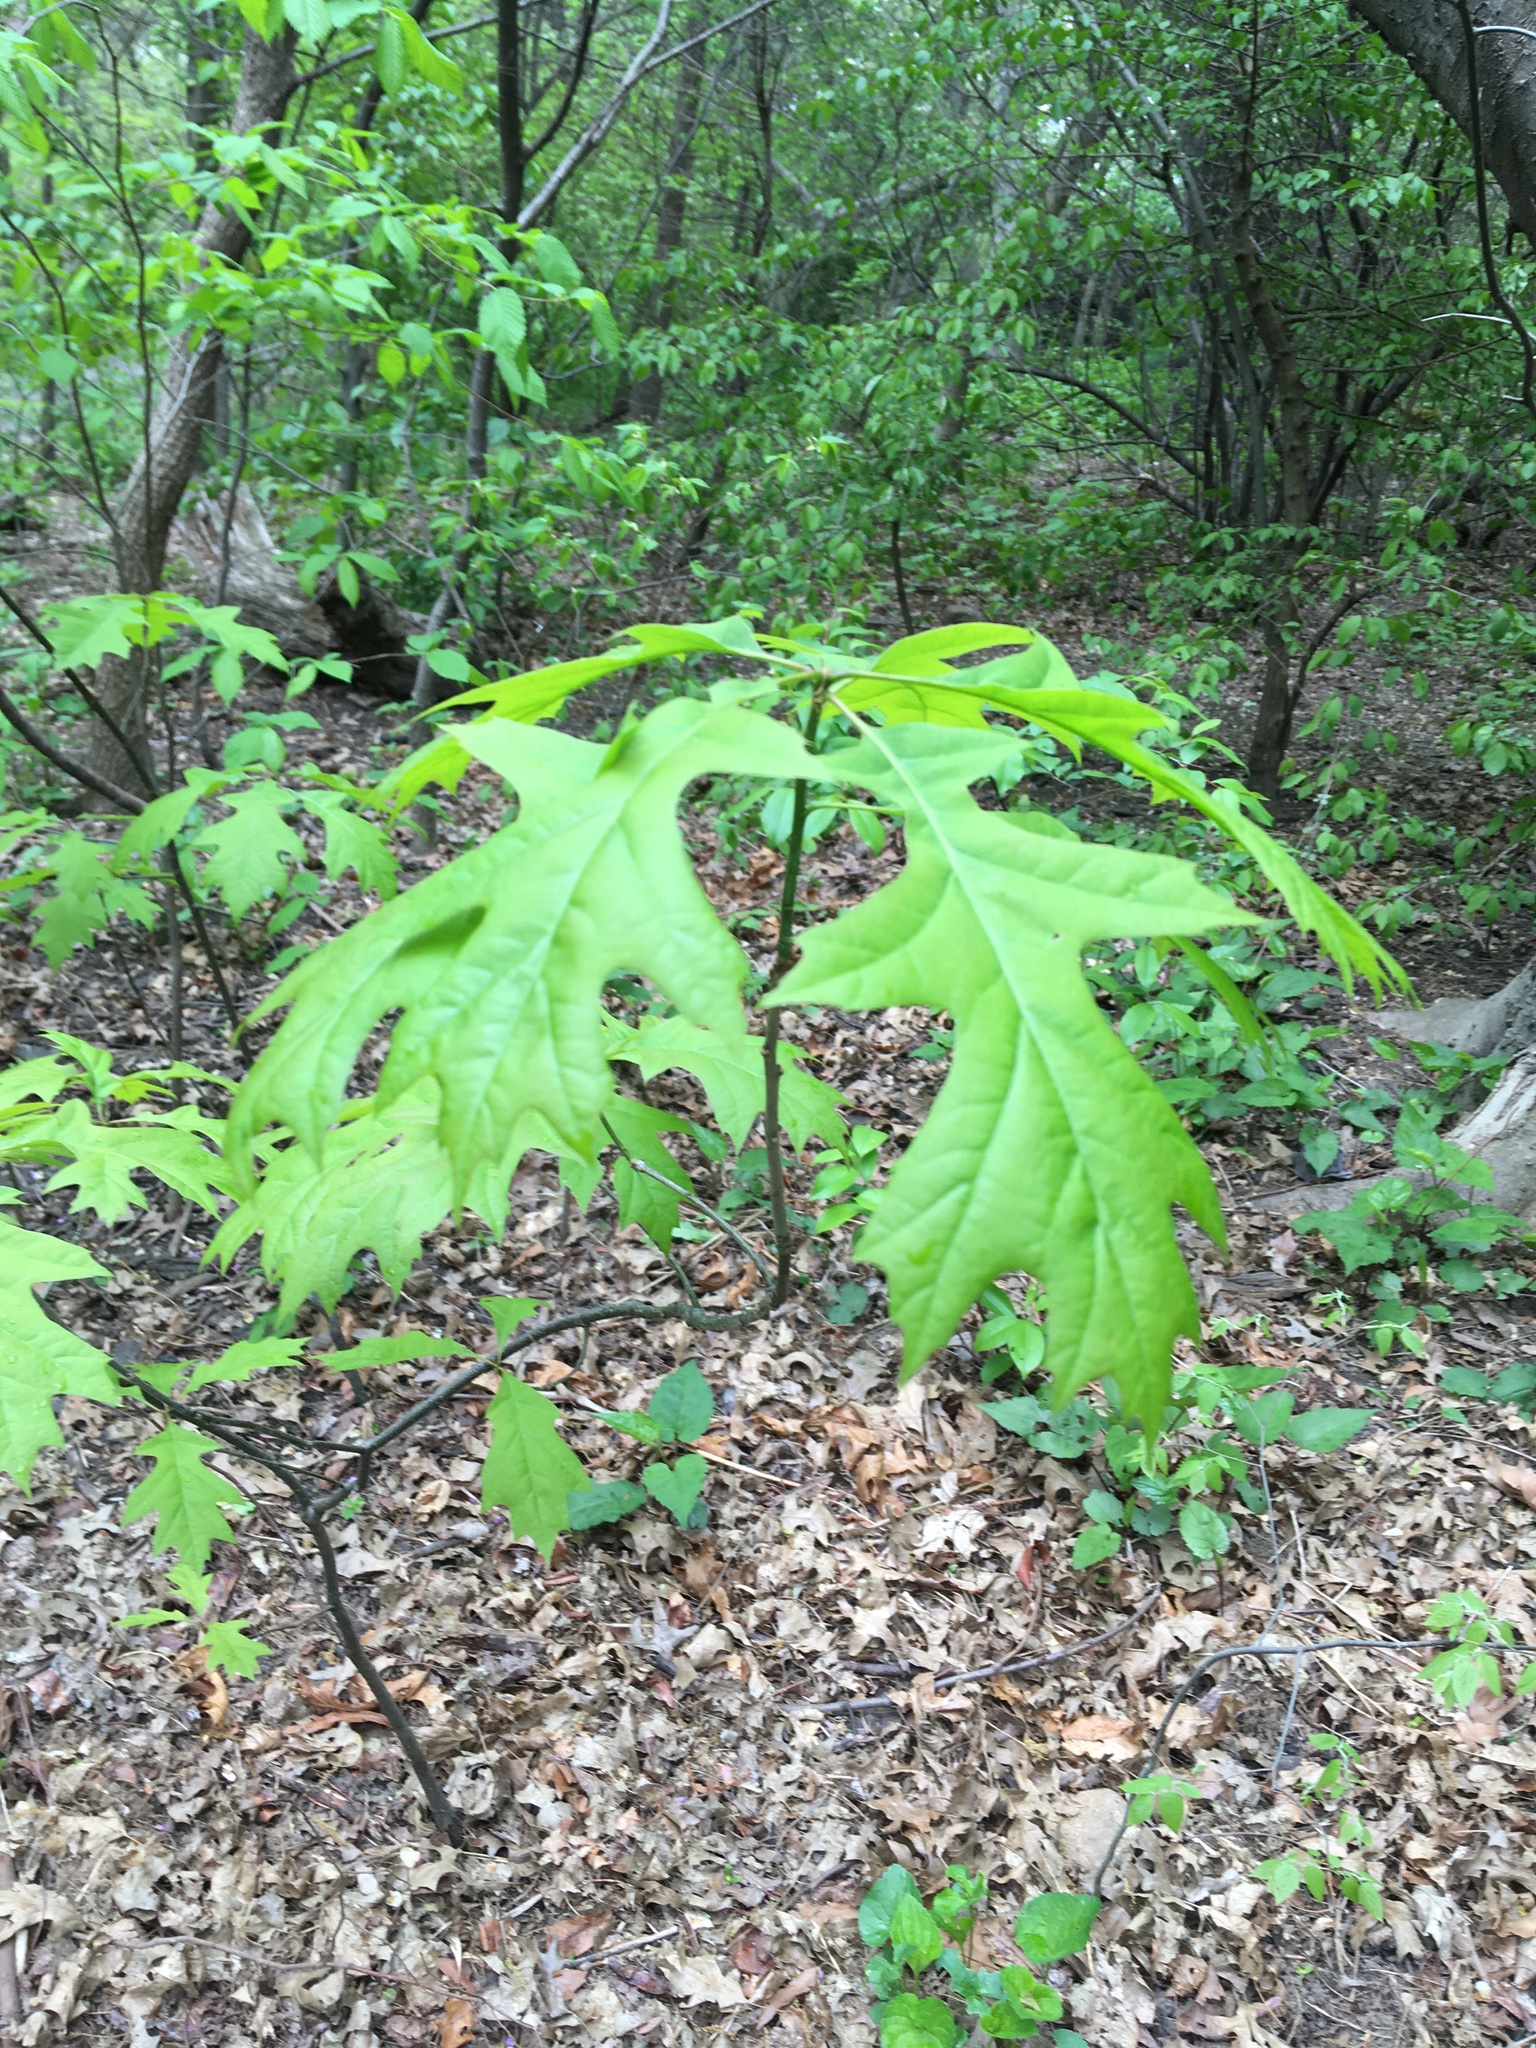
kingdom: Plantae
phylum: Tracheophyta
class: Magnoliopsida
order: Fagales
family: Fagaceae
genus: Quercus
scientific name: Quercus rubra
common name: Red oak
